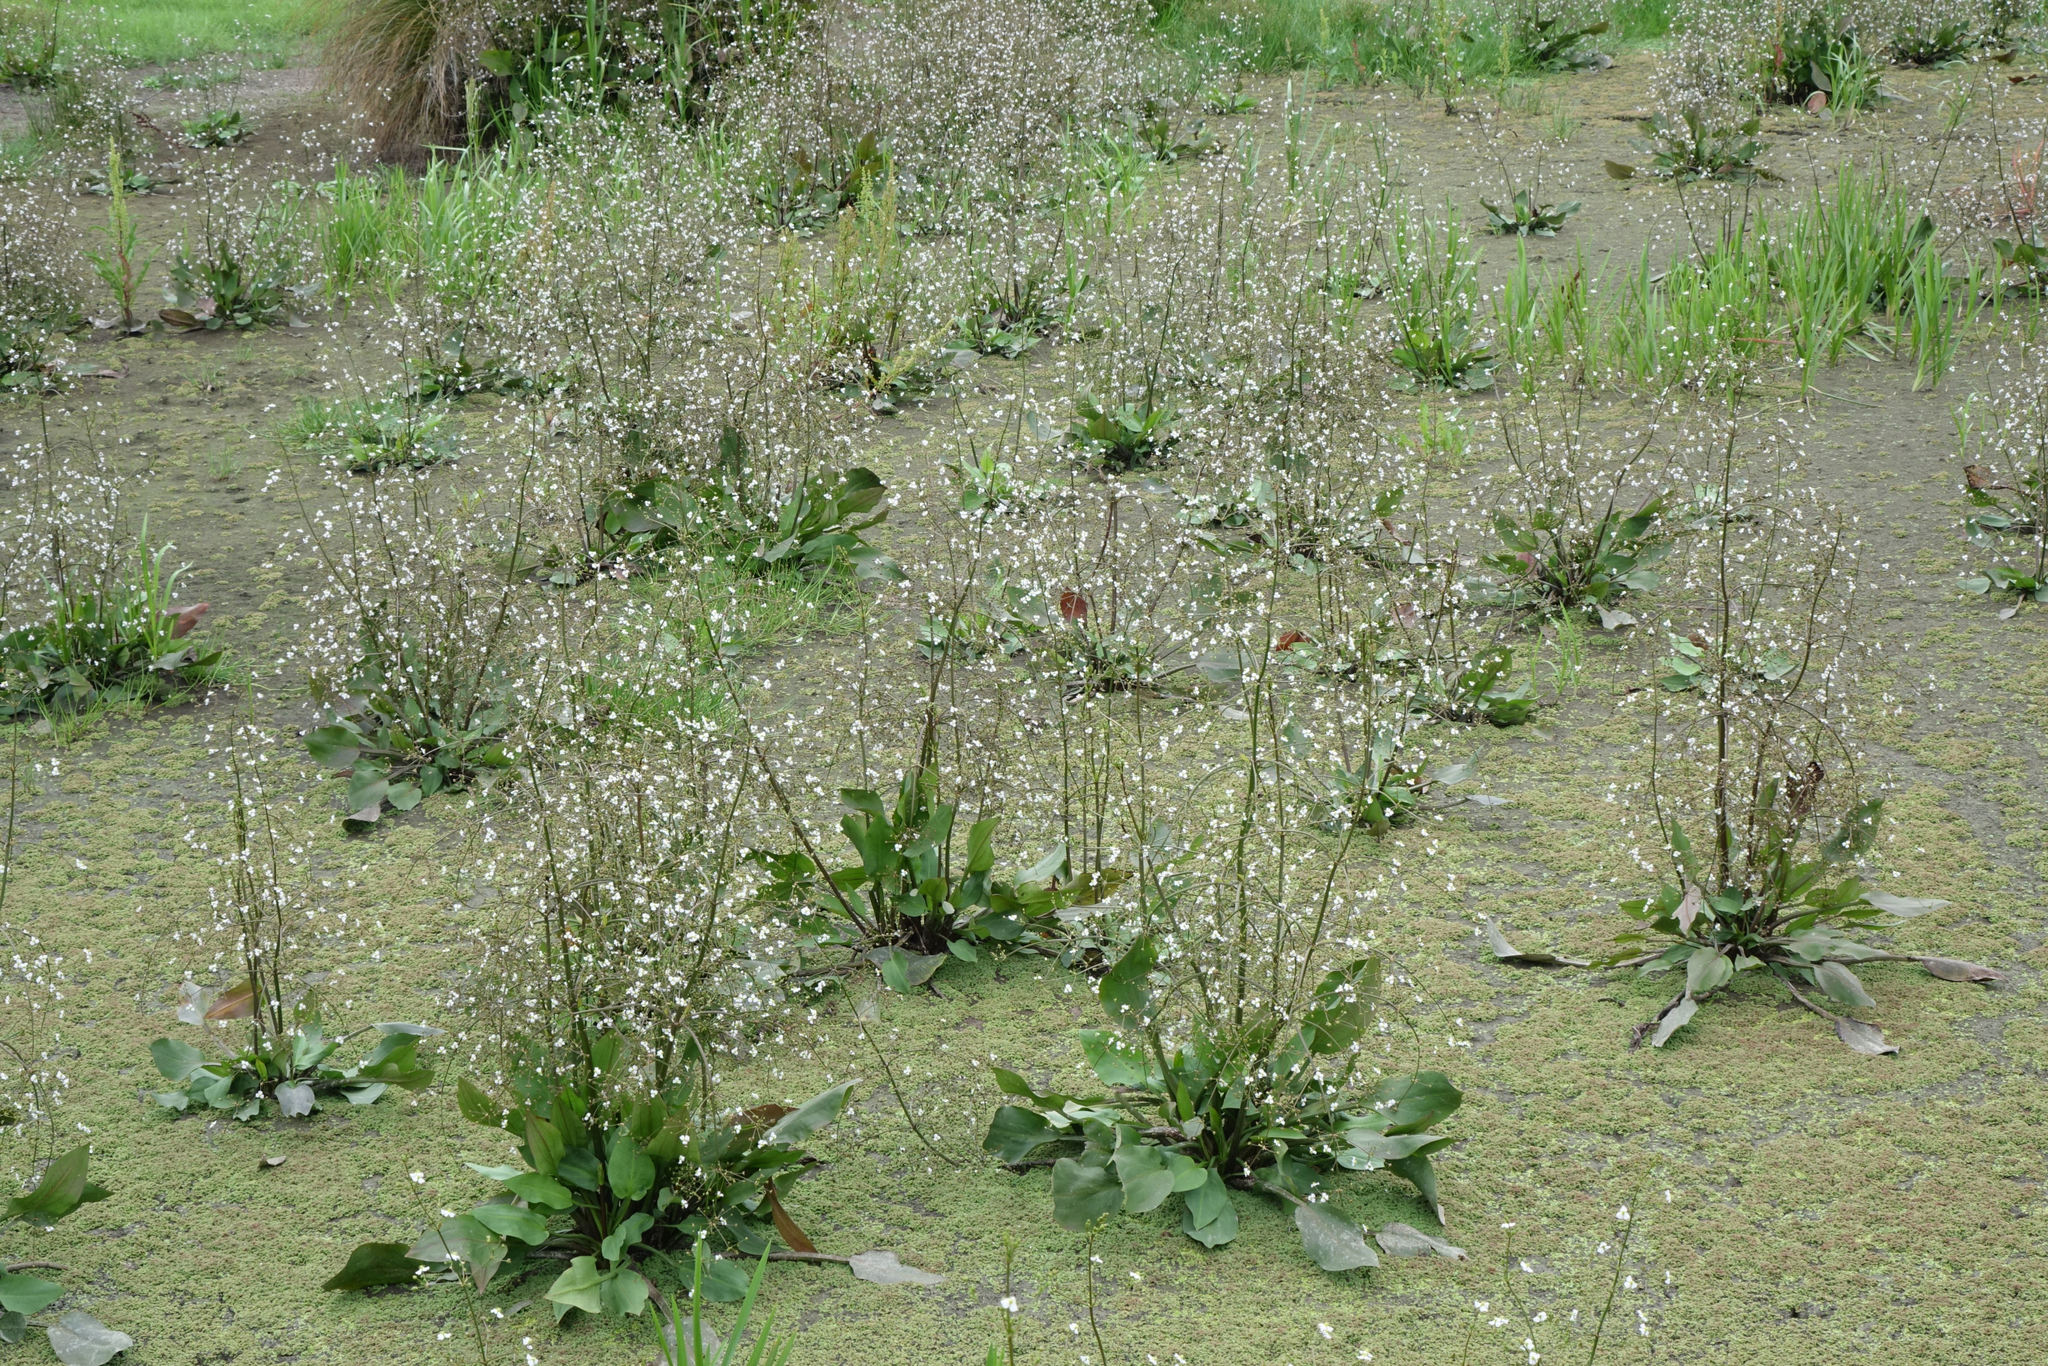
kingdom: Plantae
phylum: Tracheophyta
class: Liliopsida
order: Alismatales
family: Alismataceae
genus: Alisma
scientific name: Alisma plantago-aquatica
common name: Water-plantain
